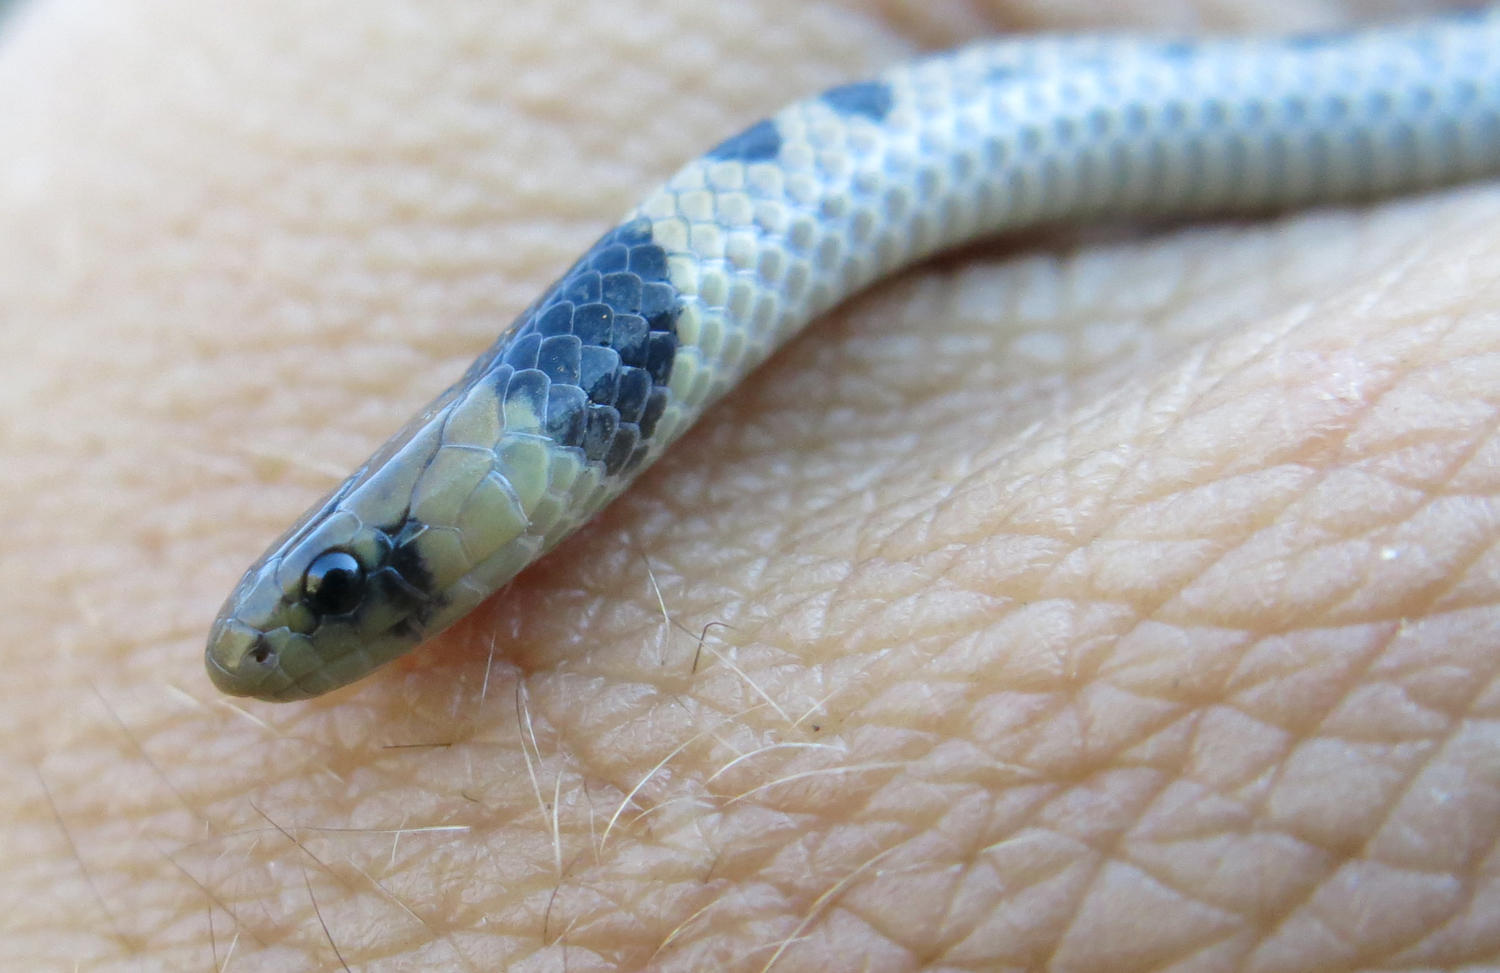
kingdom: Animalia
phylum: Chordata
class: Squamata
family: Atractaspididae
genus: Aparallactus
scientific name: Aparallactus lunulatus
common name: Plumbeous centipede eater
